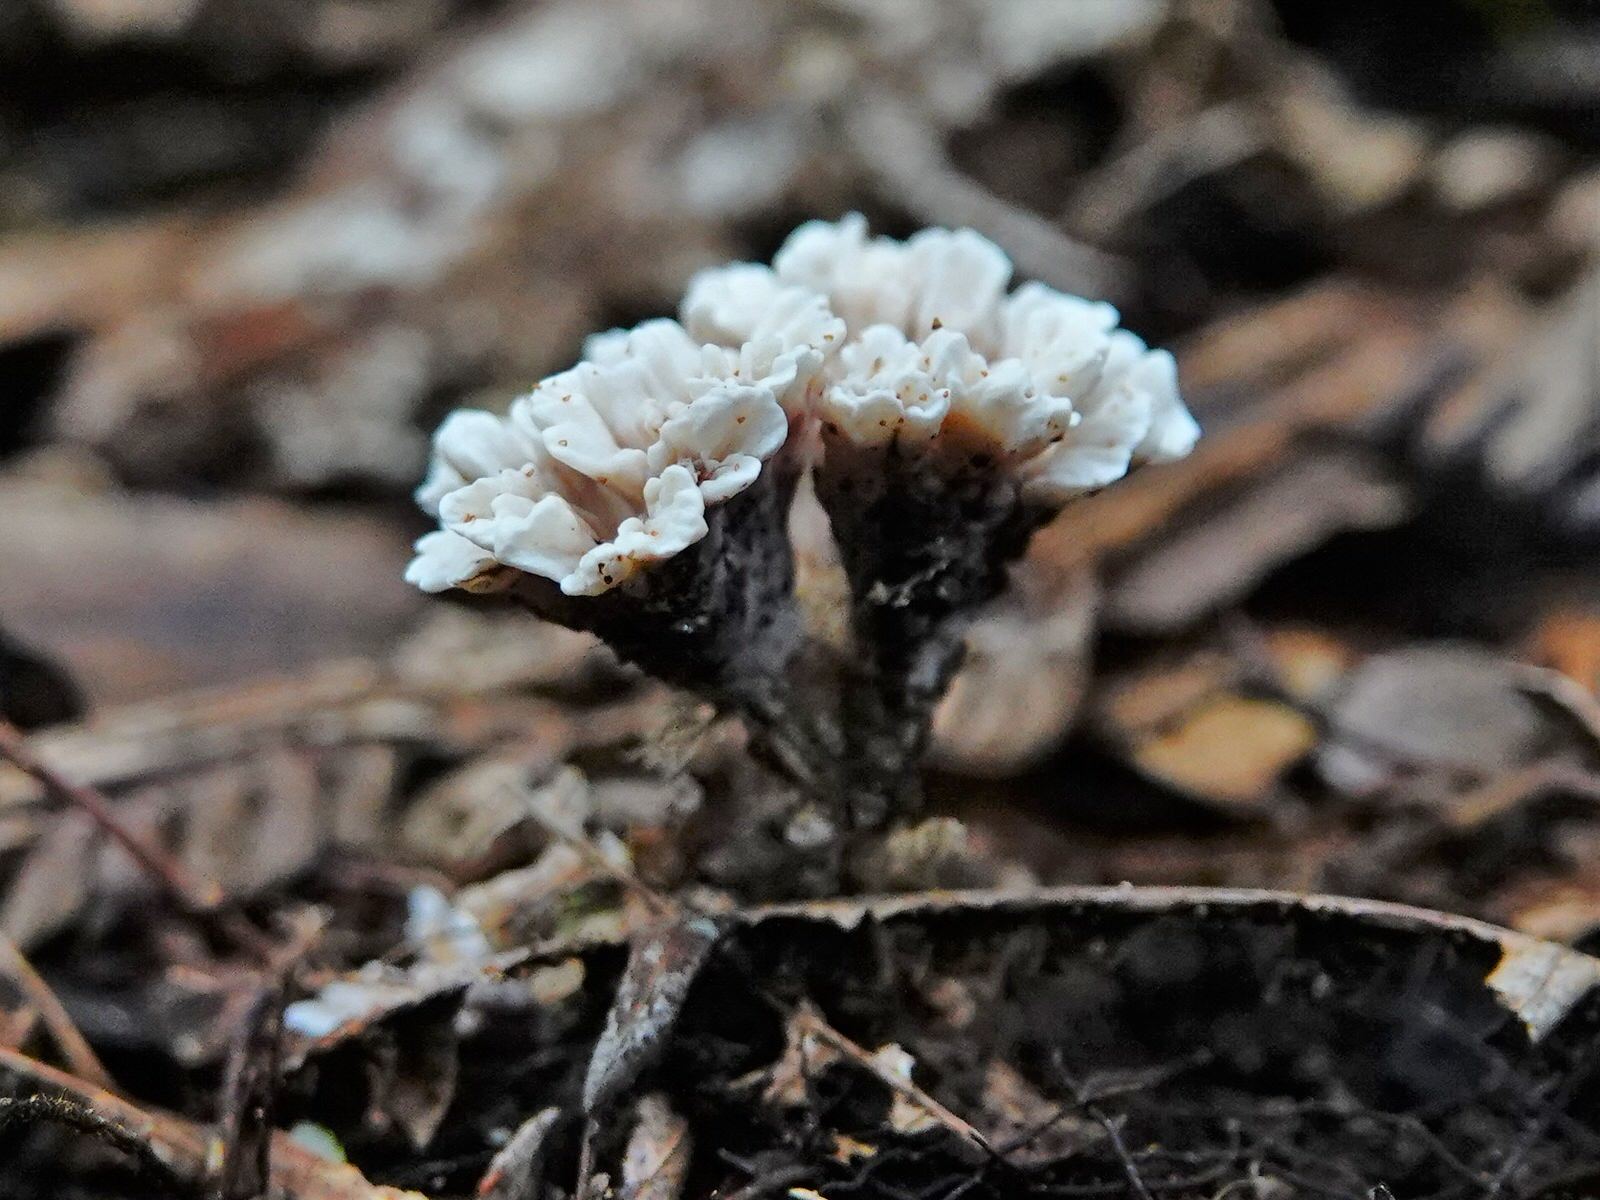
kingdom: Fungi
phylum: Basidiomycota
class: Agaricomycetes
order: Stereopsidales
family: Stereopsidaceae
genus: Stereopsis
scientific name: Stereopsis hiscens
